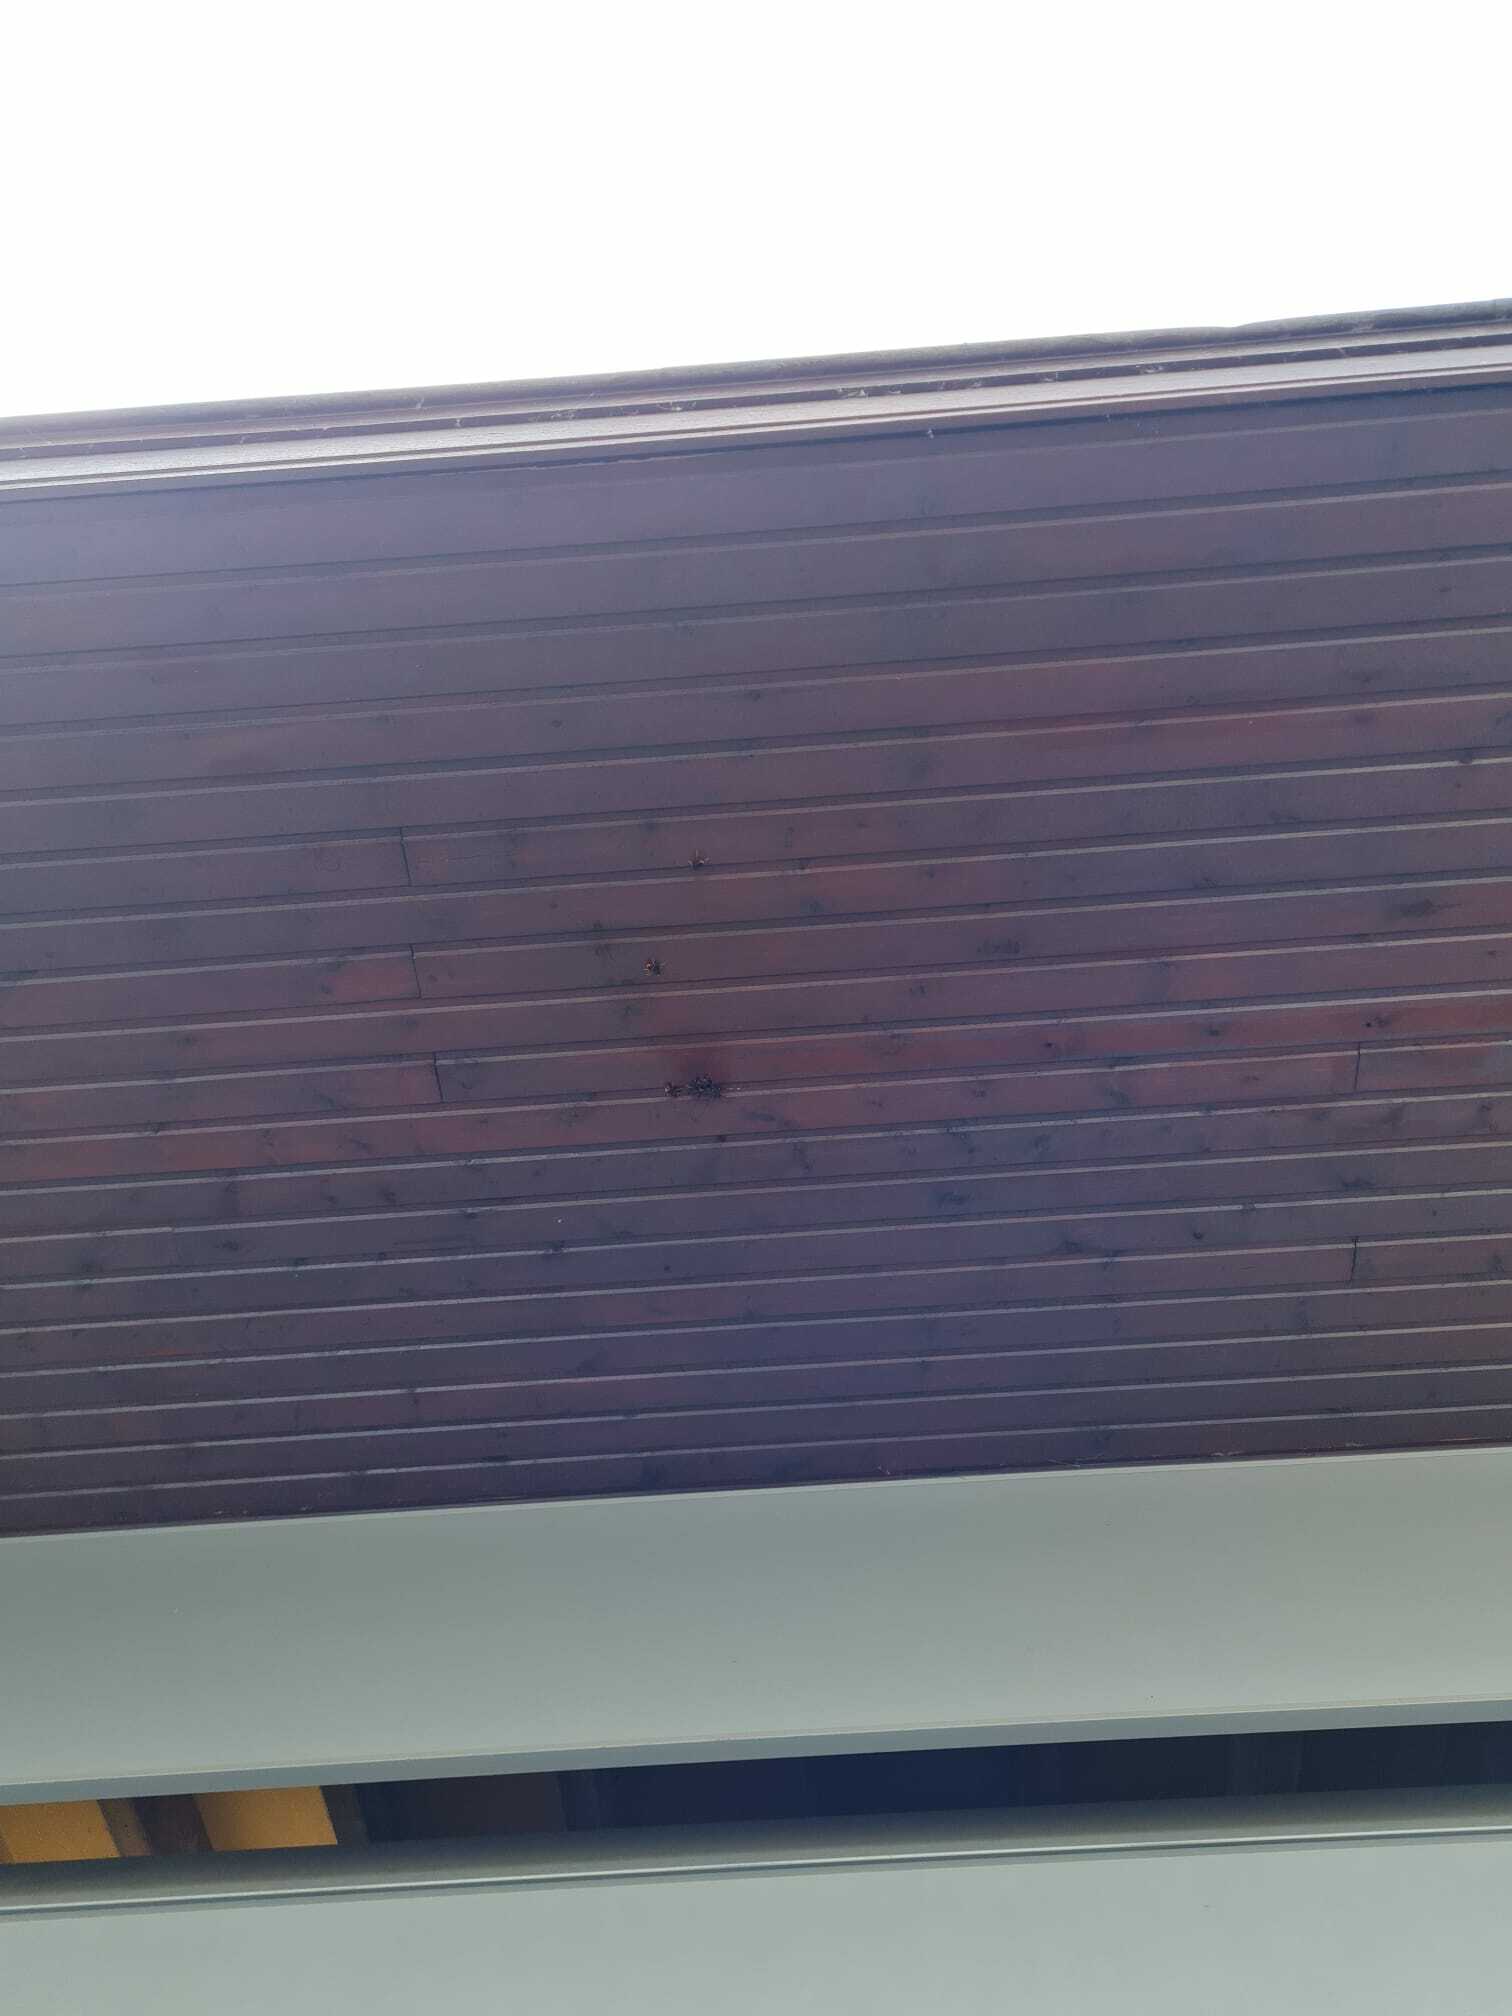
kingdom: Animalia
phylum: Arthropoda
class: Insecta
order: Hymenoptera
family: Vespidae
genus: Vespa
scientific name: Vespa velutina
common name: Asian hornet
